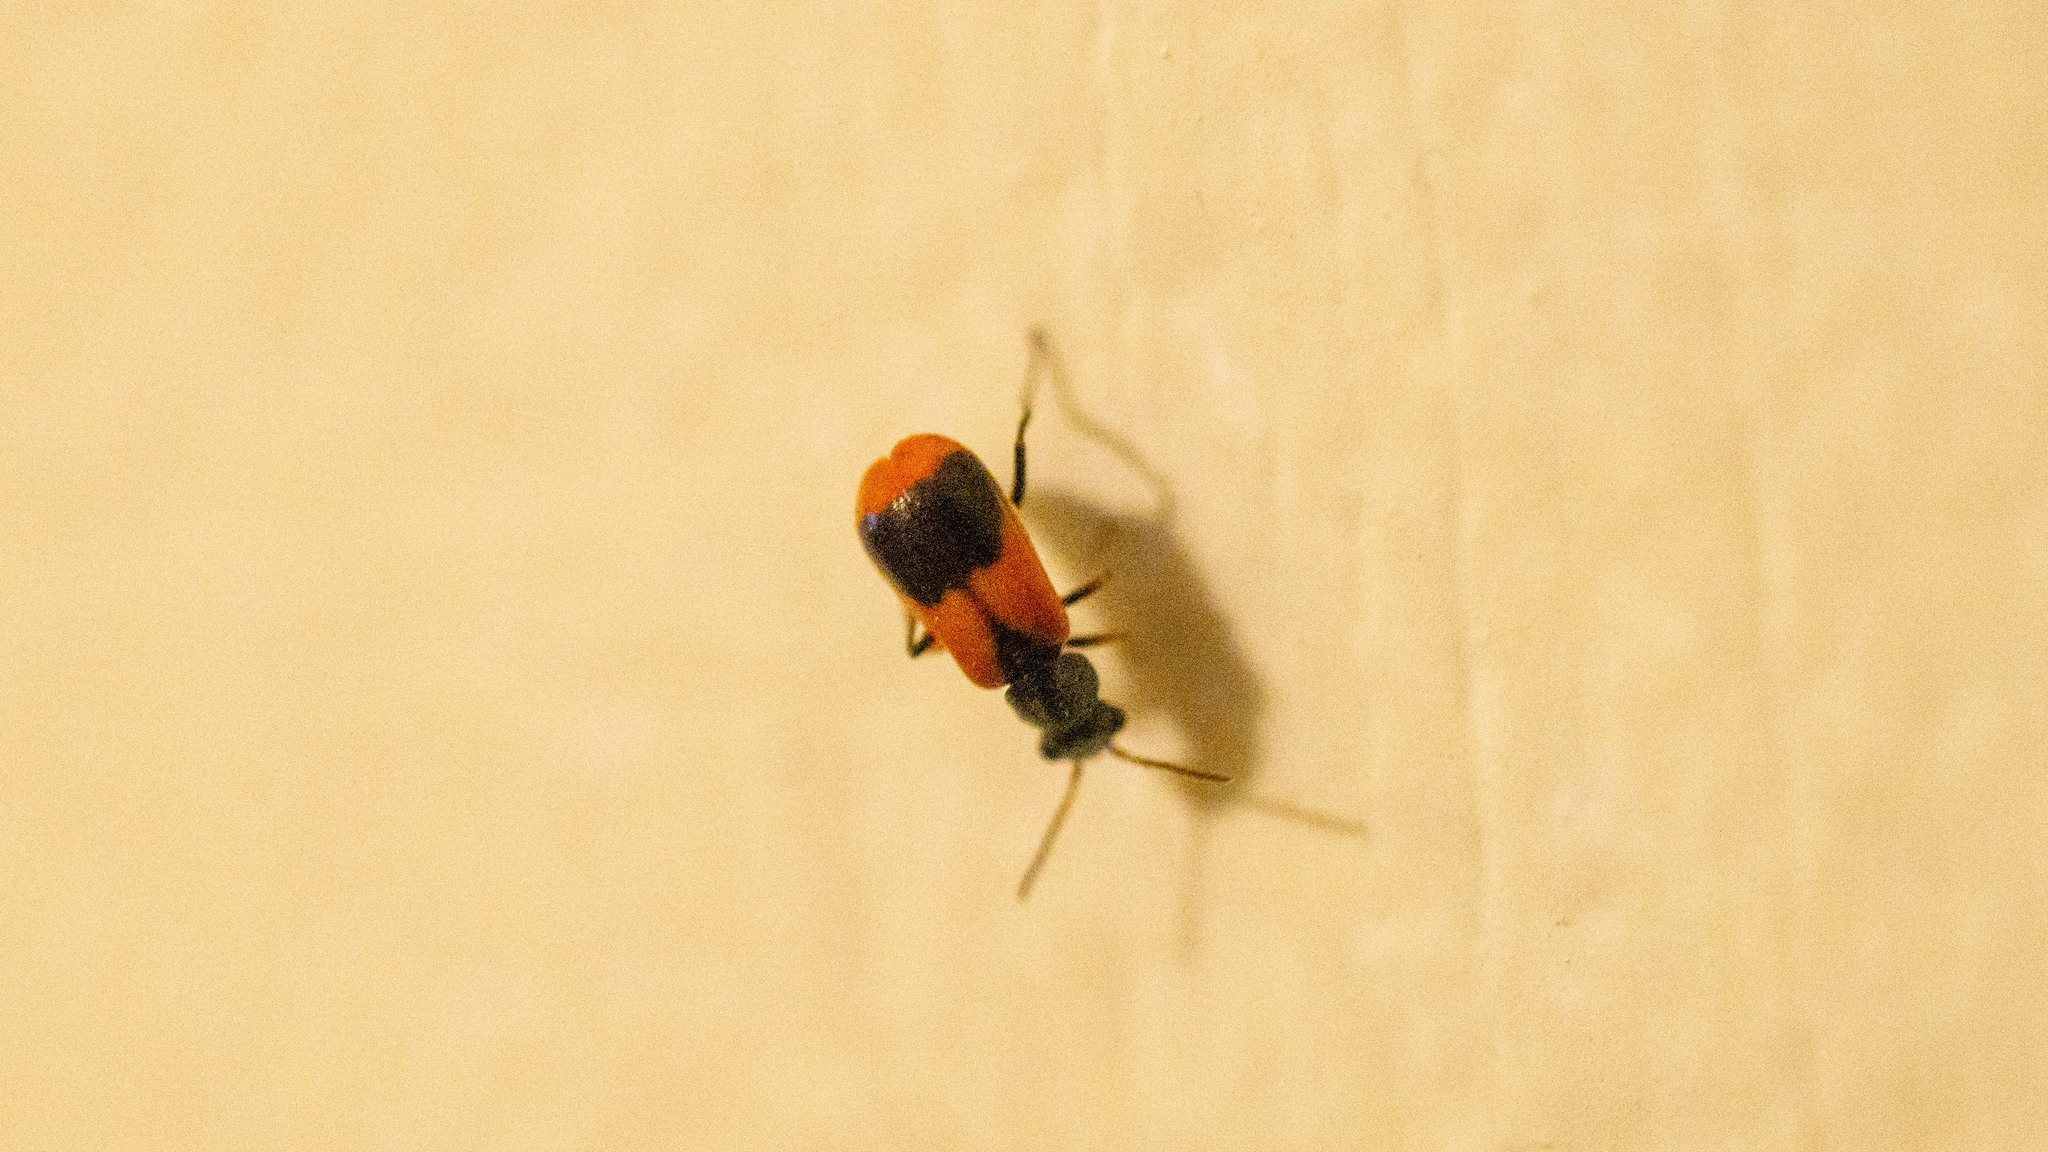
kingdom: Animalia
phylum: Arthropoda
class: Insecta
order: Coleoptera
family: Melyridae
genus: Anthocomus
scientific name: Anthocomus equestris
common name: Black-banded soft-winged flower beetle
